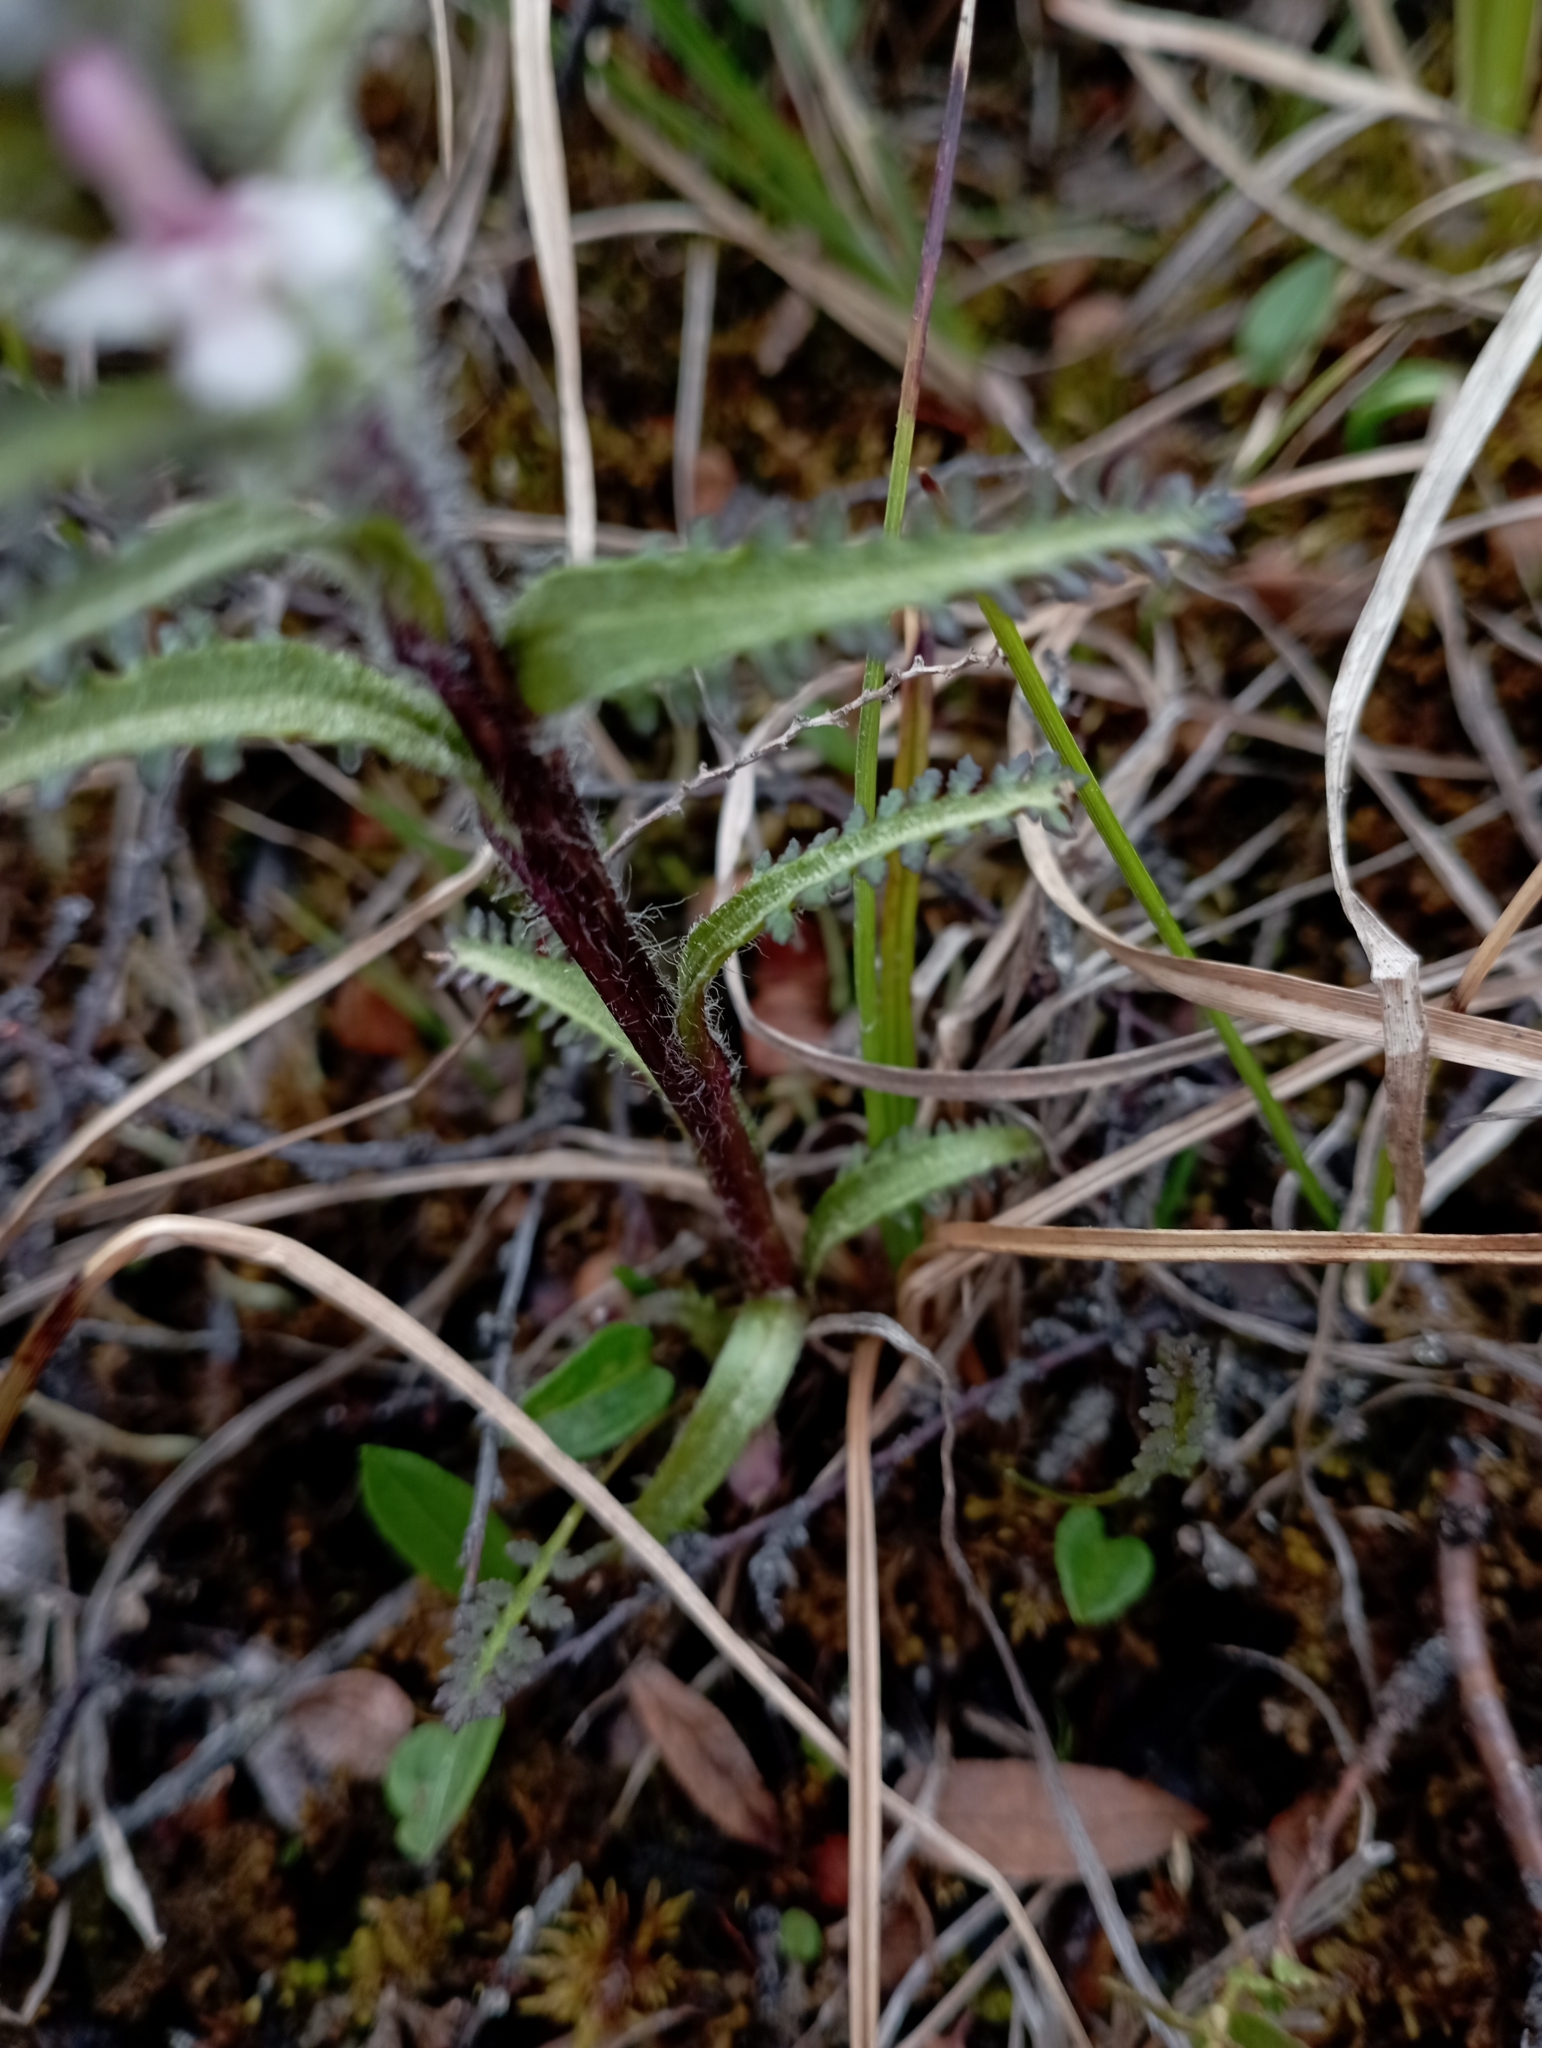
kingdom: Plantae
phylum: Tracheophyta
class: Magnoliopsida
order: Lamiales
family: Orobanchaceae
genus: Pedicularis
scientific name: Pedicularis hirsuta
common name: Hairy lousewort
